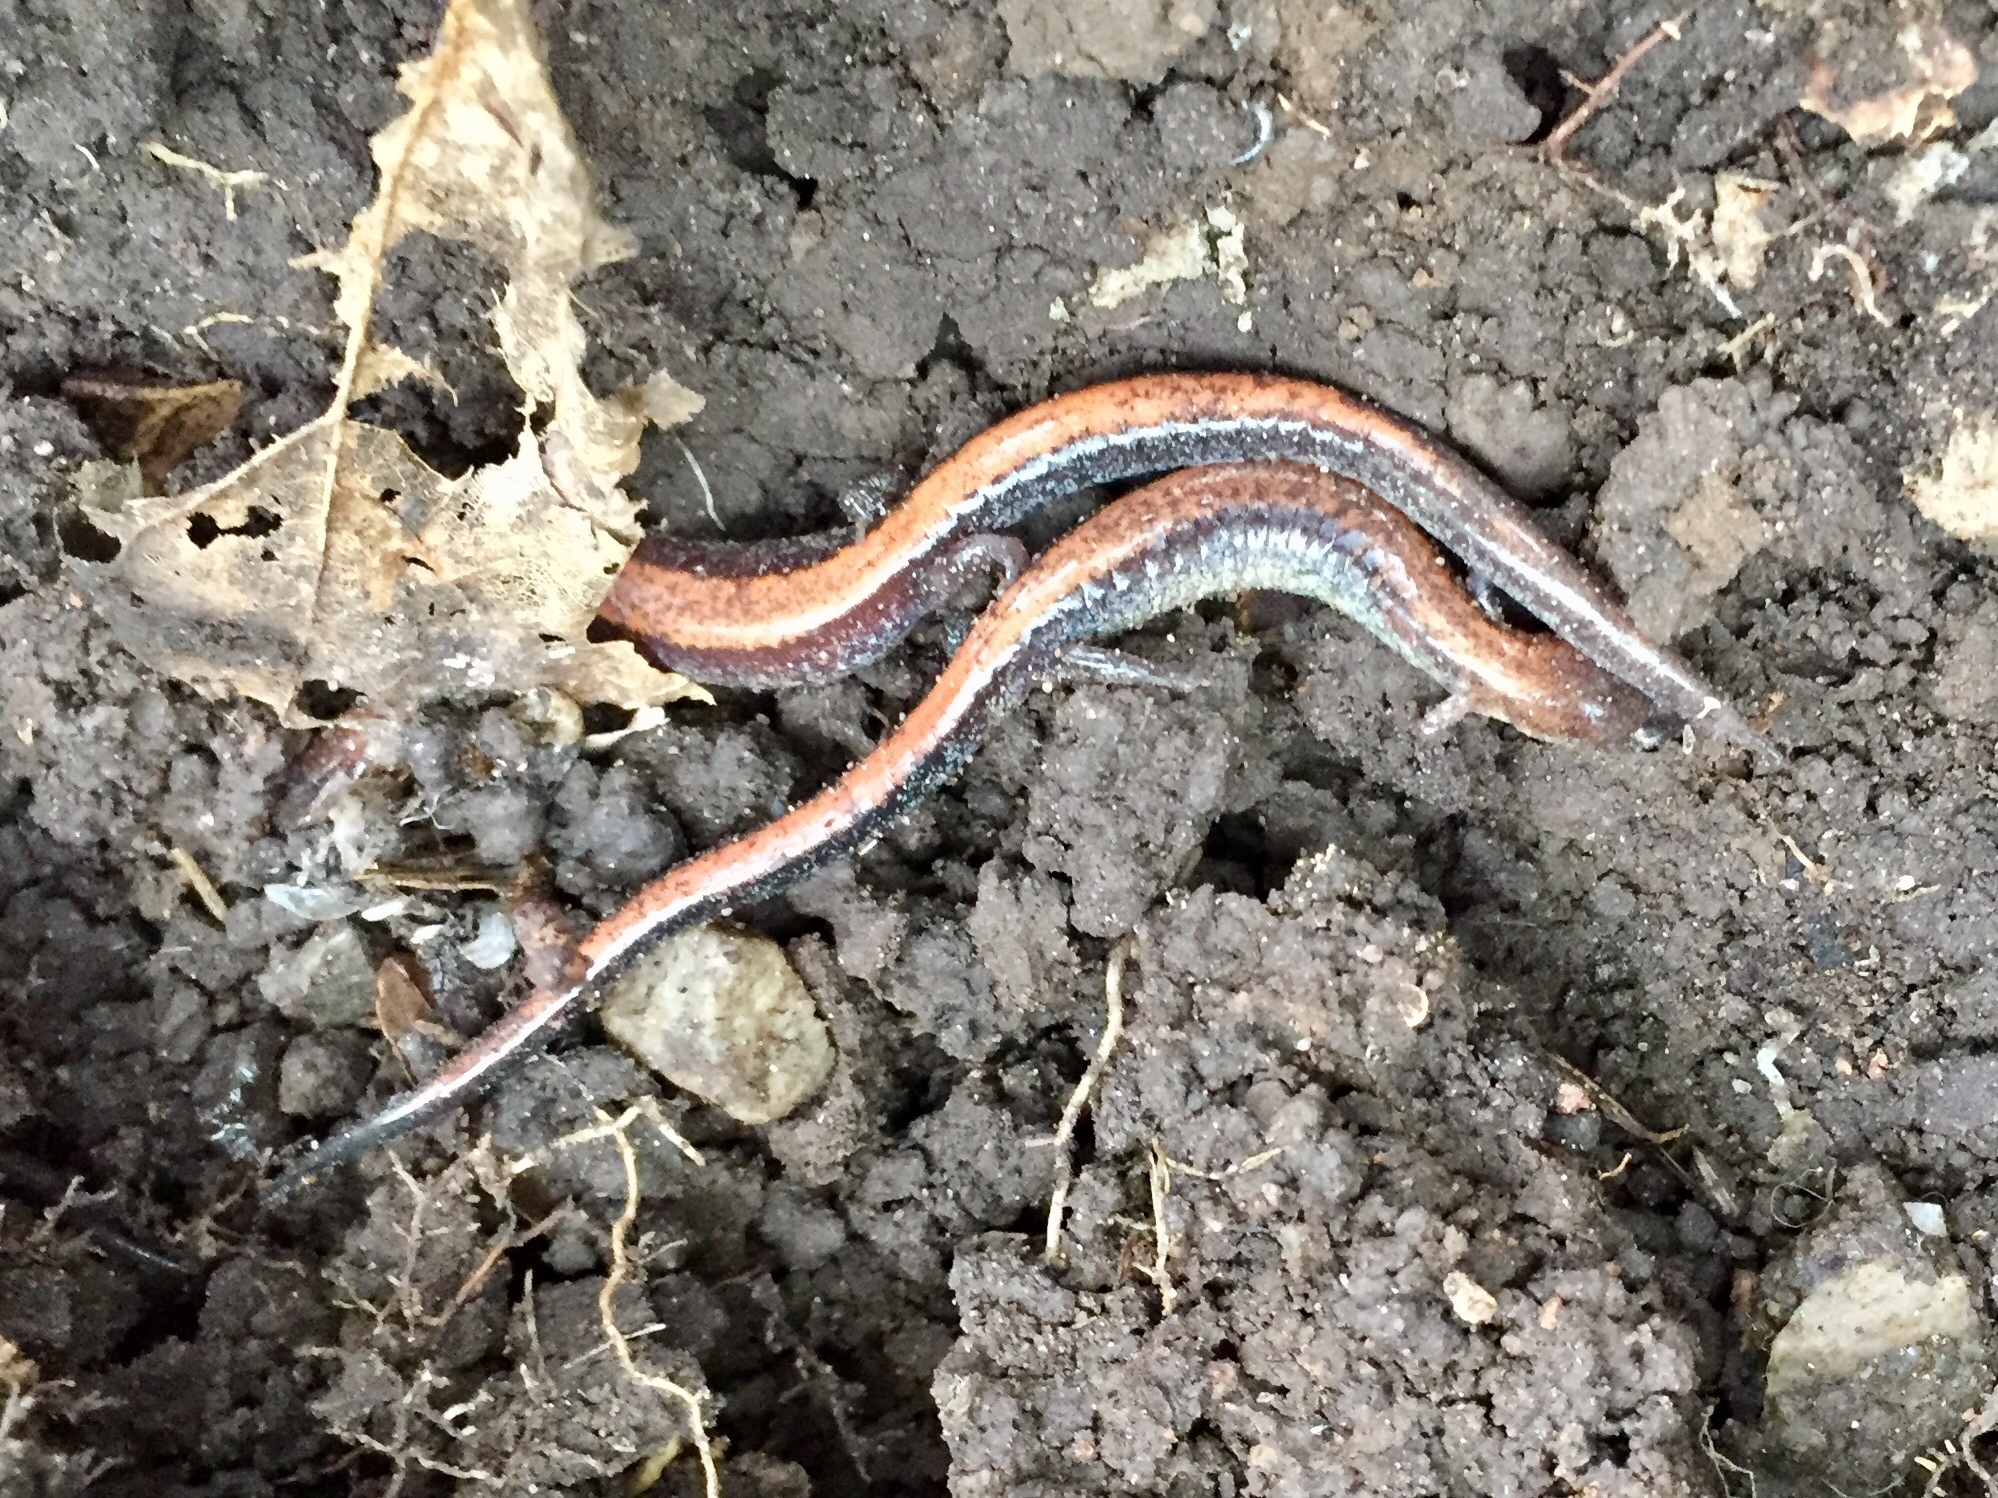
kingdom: Animalia
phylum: Chordata
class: Amphibia
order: Caudata
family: Plethodontidae
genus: Plethodon
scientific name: Plethodon cinereus
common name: Redback salamander
